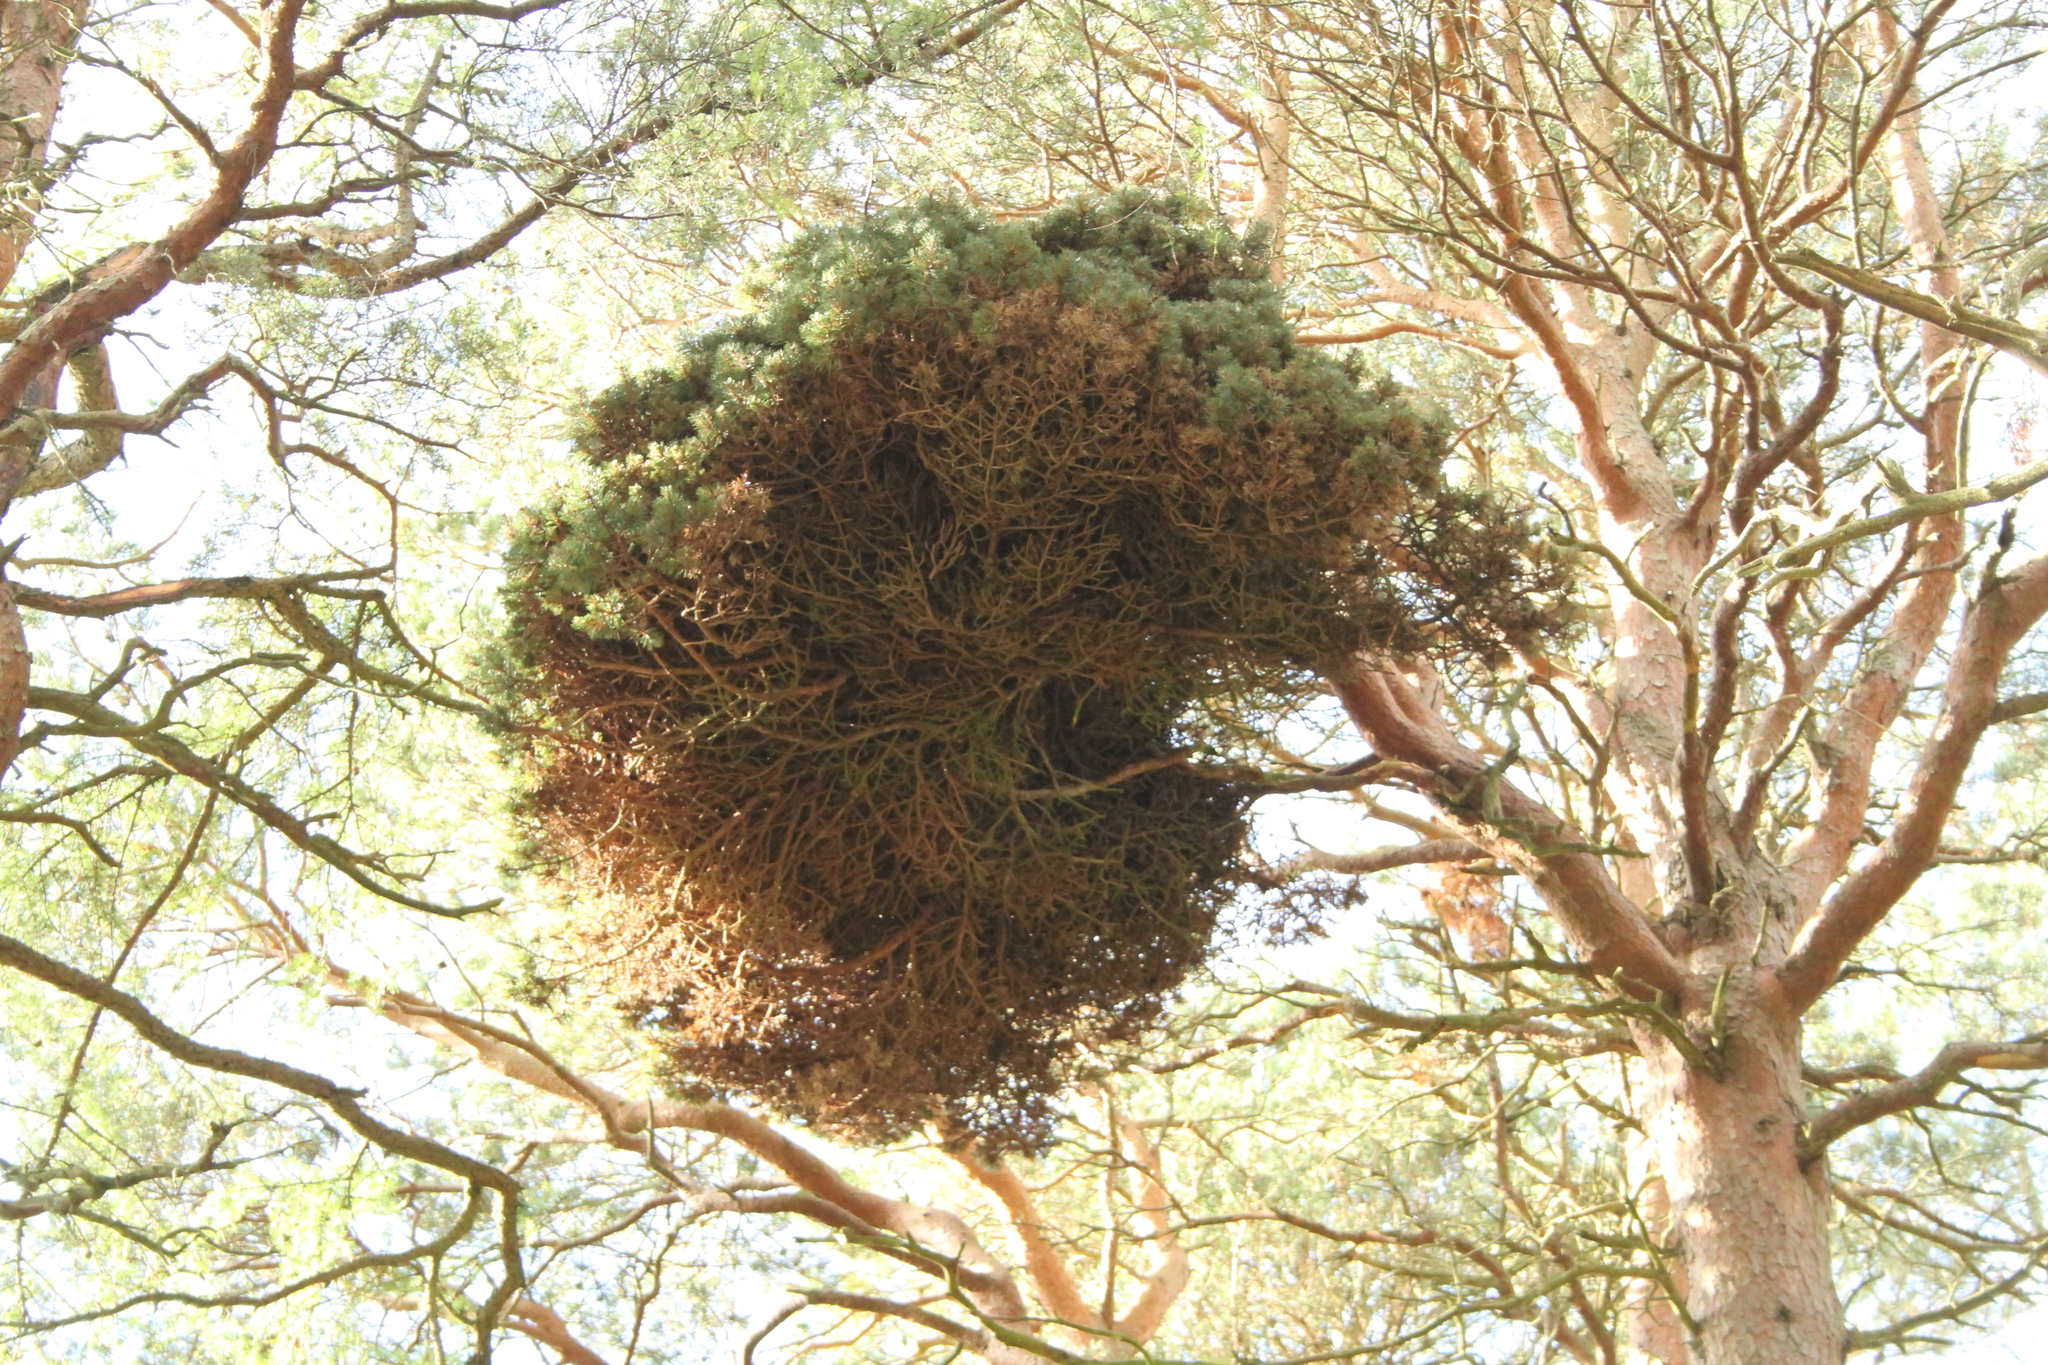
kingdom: Bacteria
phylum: Firmicutes
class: Bacilli
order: Acholeplasmatales
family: Acholeplasmataceae
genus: Phytoplasma
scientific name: Phytoplasma pini
